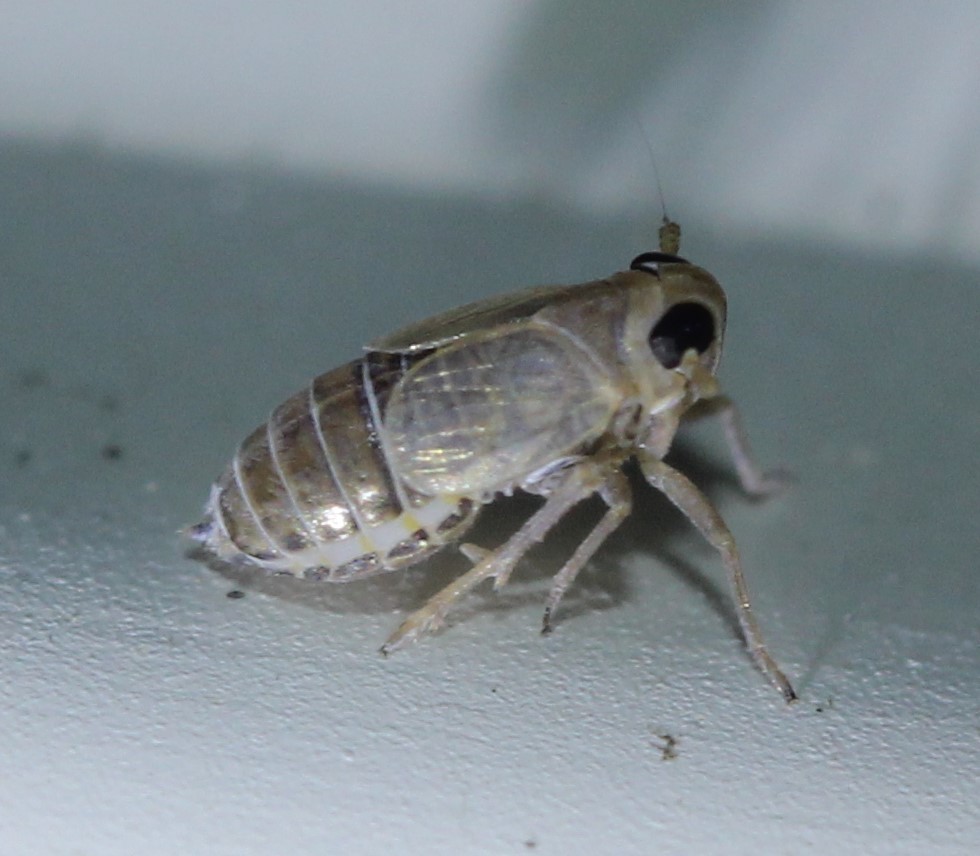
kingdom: Animalia
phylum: Arthropoda
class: Insecta
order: Hemiptera
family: Delphacidae
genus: Kosswigianella
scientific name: Kosswigianella lutulenta
